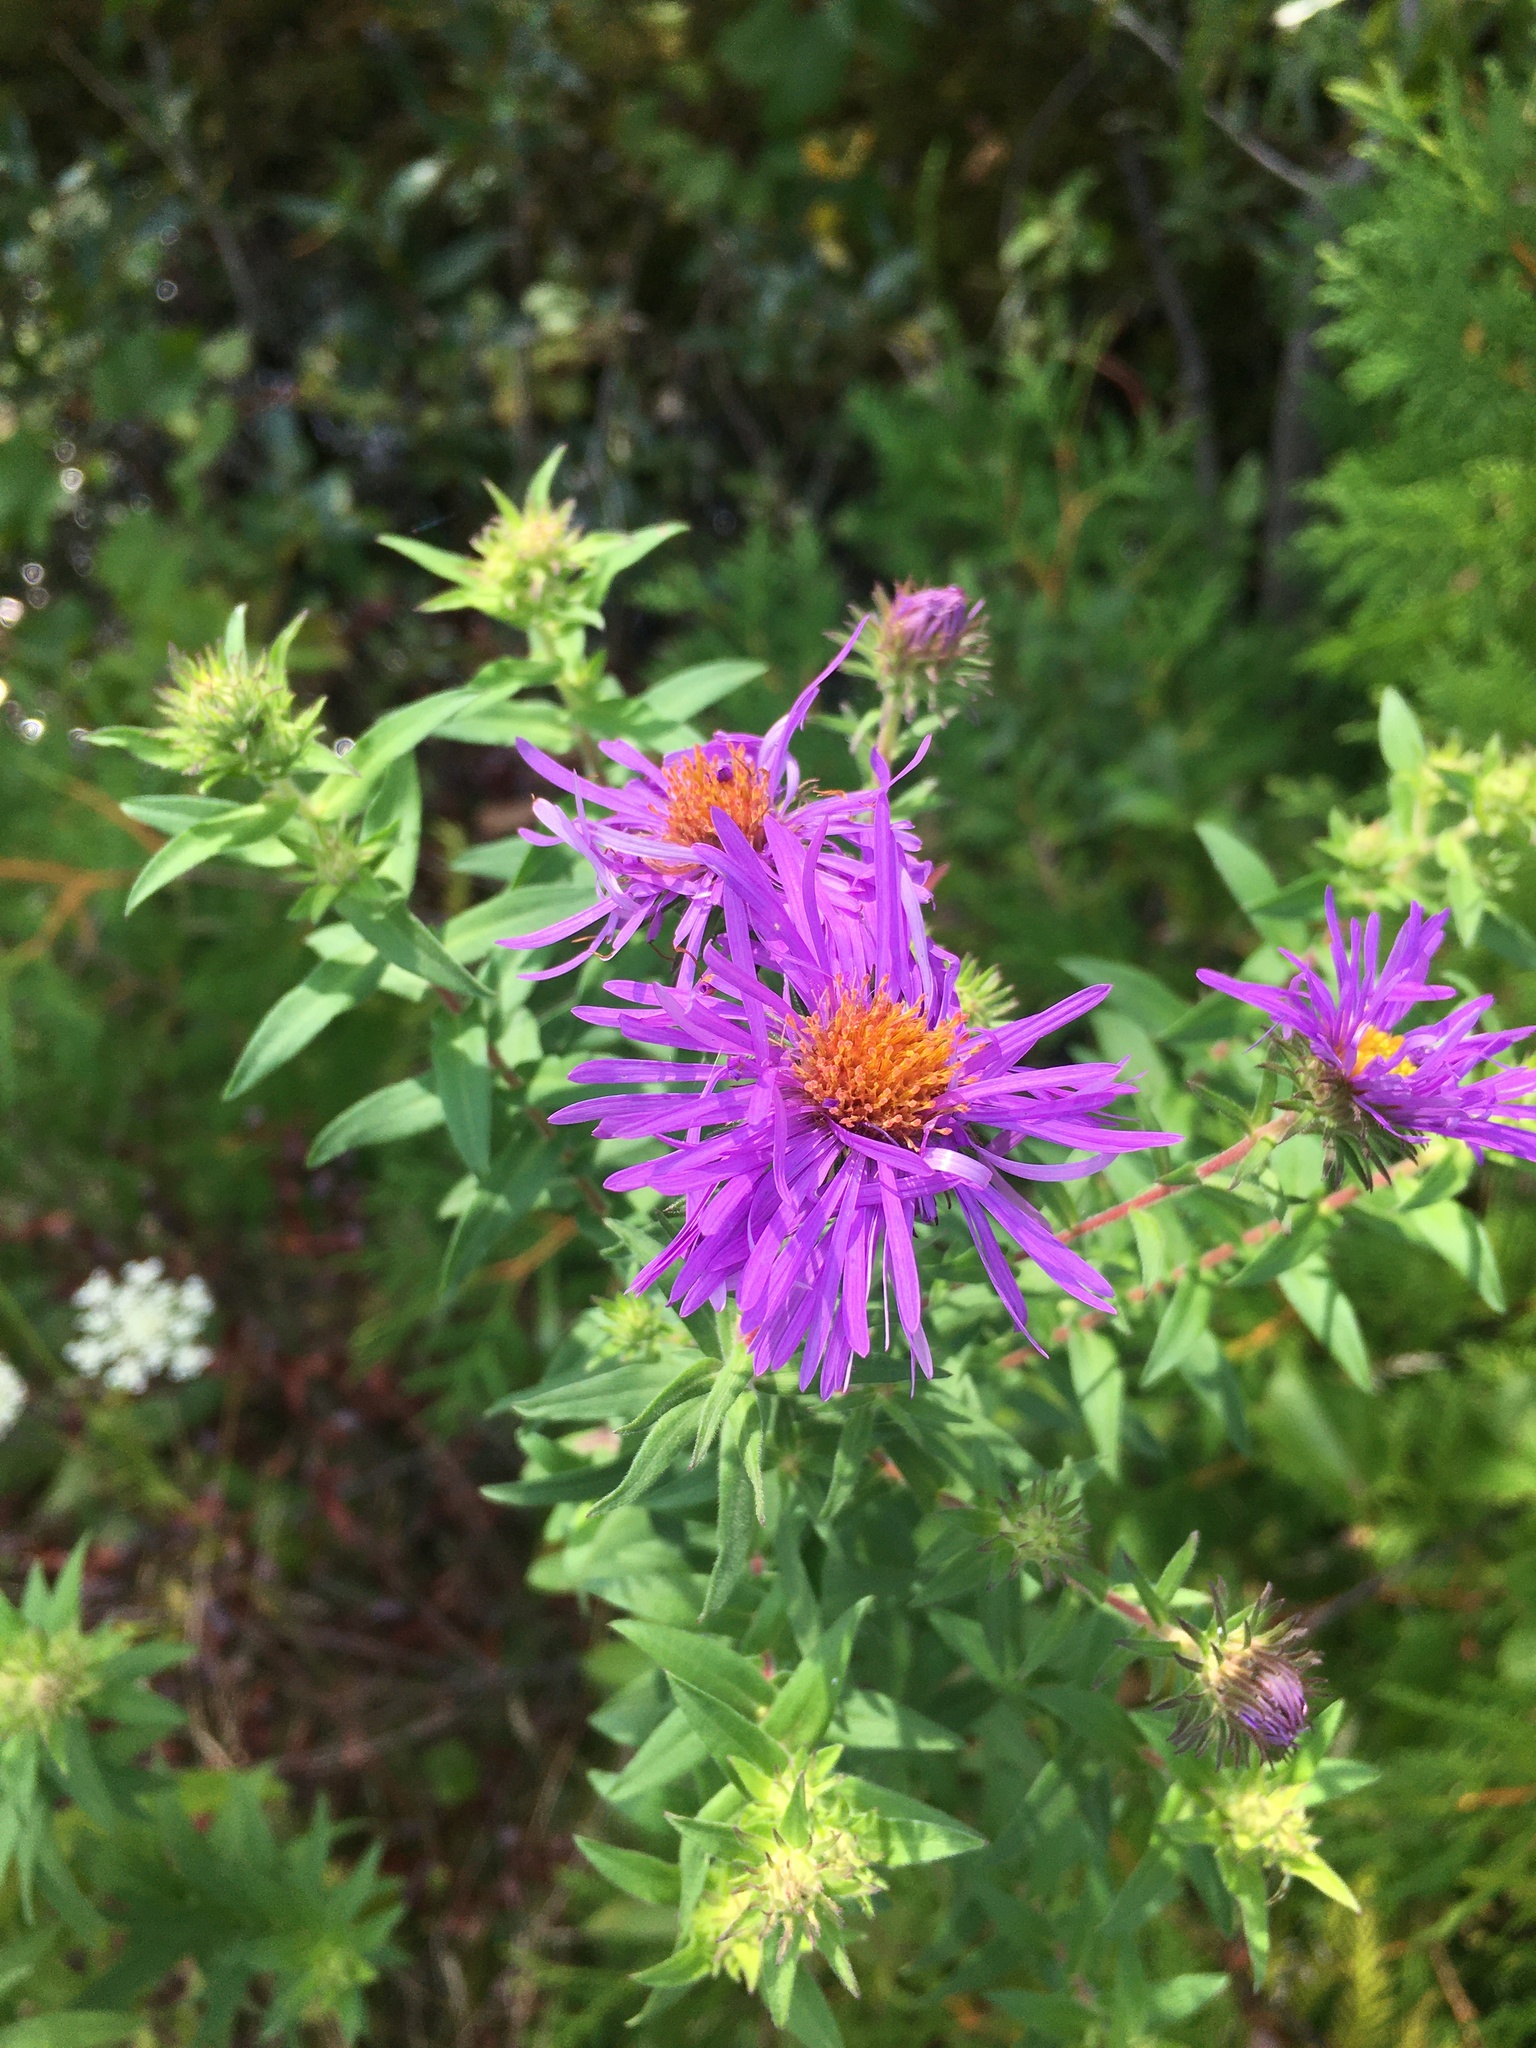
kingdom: Plantae
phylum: Tracheophyta
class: Magnoliopsida
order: Asterales
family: Asteraceae
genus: Symphyotrichum
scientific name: Symphyotrichum novae-angliae
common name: Michaelmas daisy
